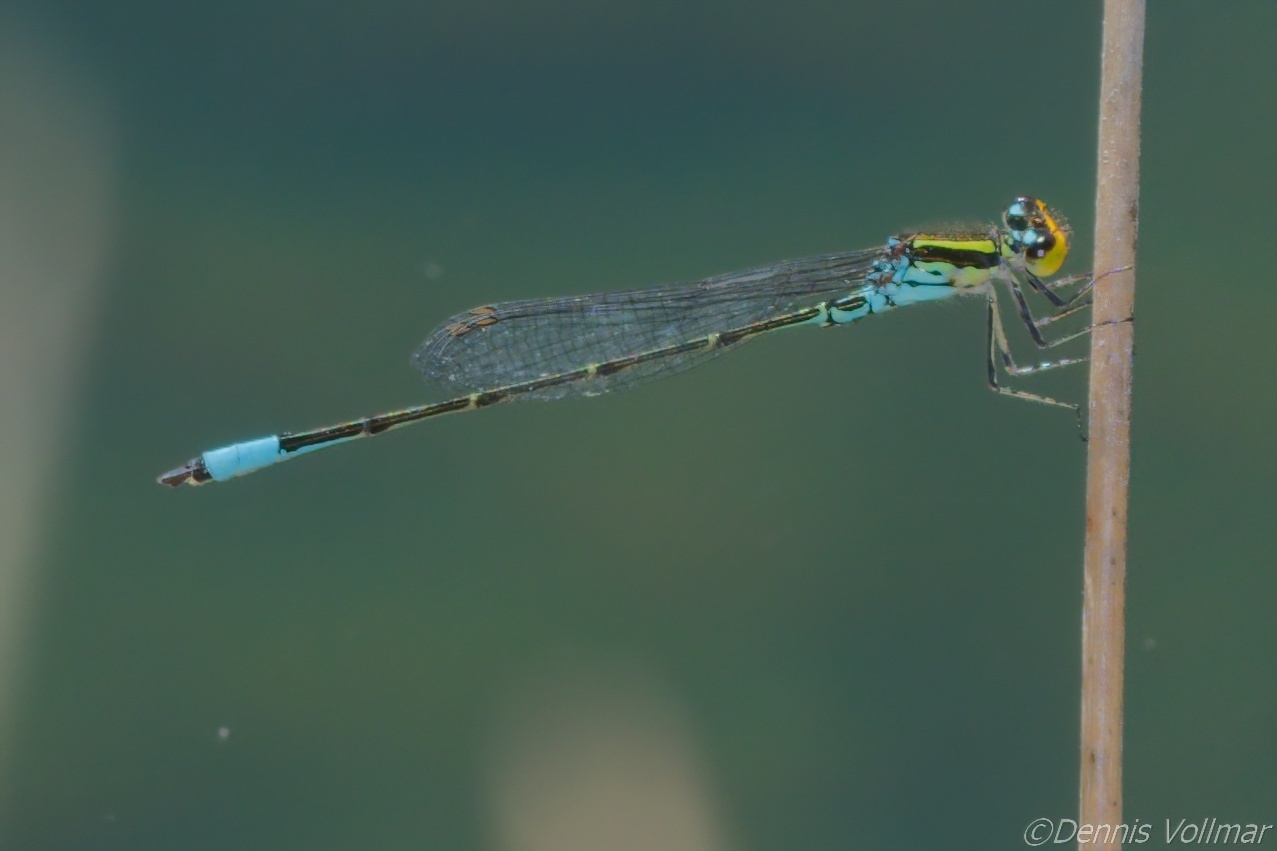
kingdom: Animalia
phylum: Arthropoda
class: Insecta
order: Odonata
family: Coenagrionidae
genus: Neoerythromma
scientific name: Neoerythromma cultellatum
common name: Caribbean yellowface
